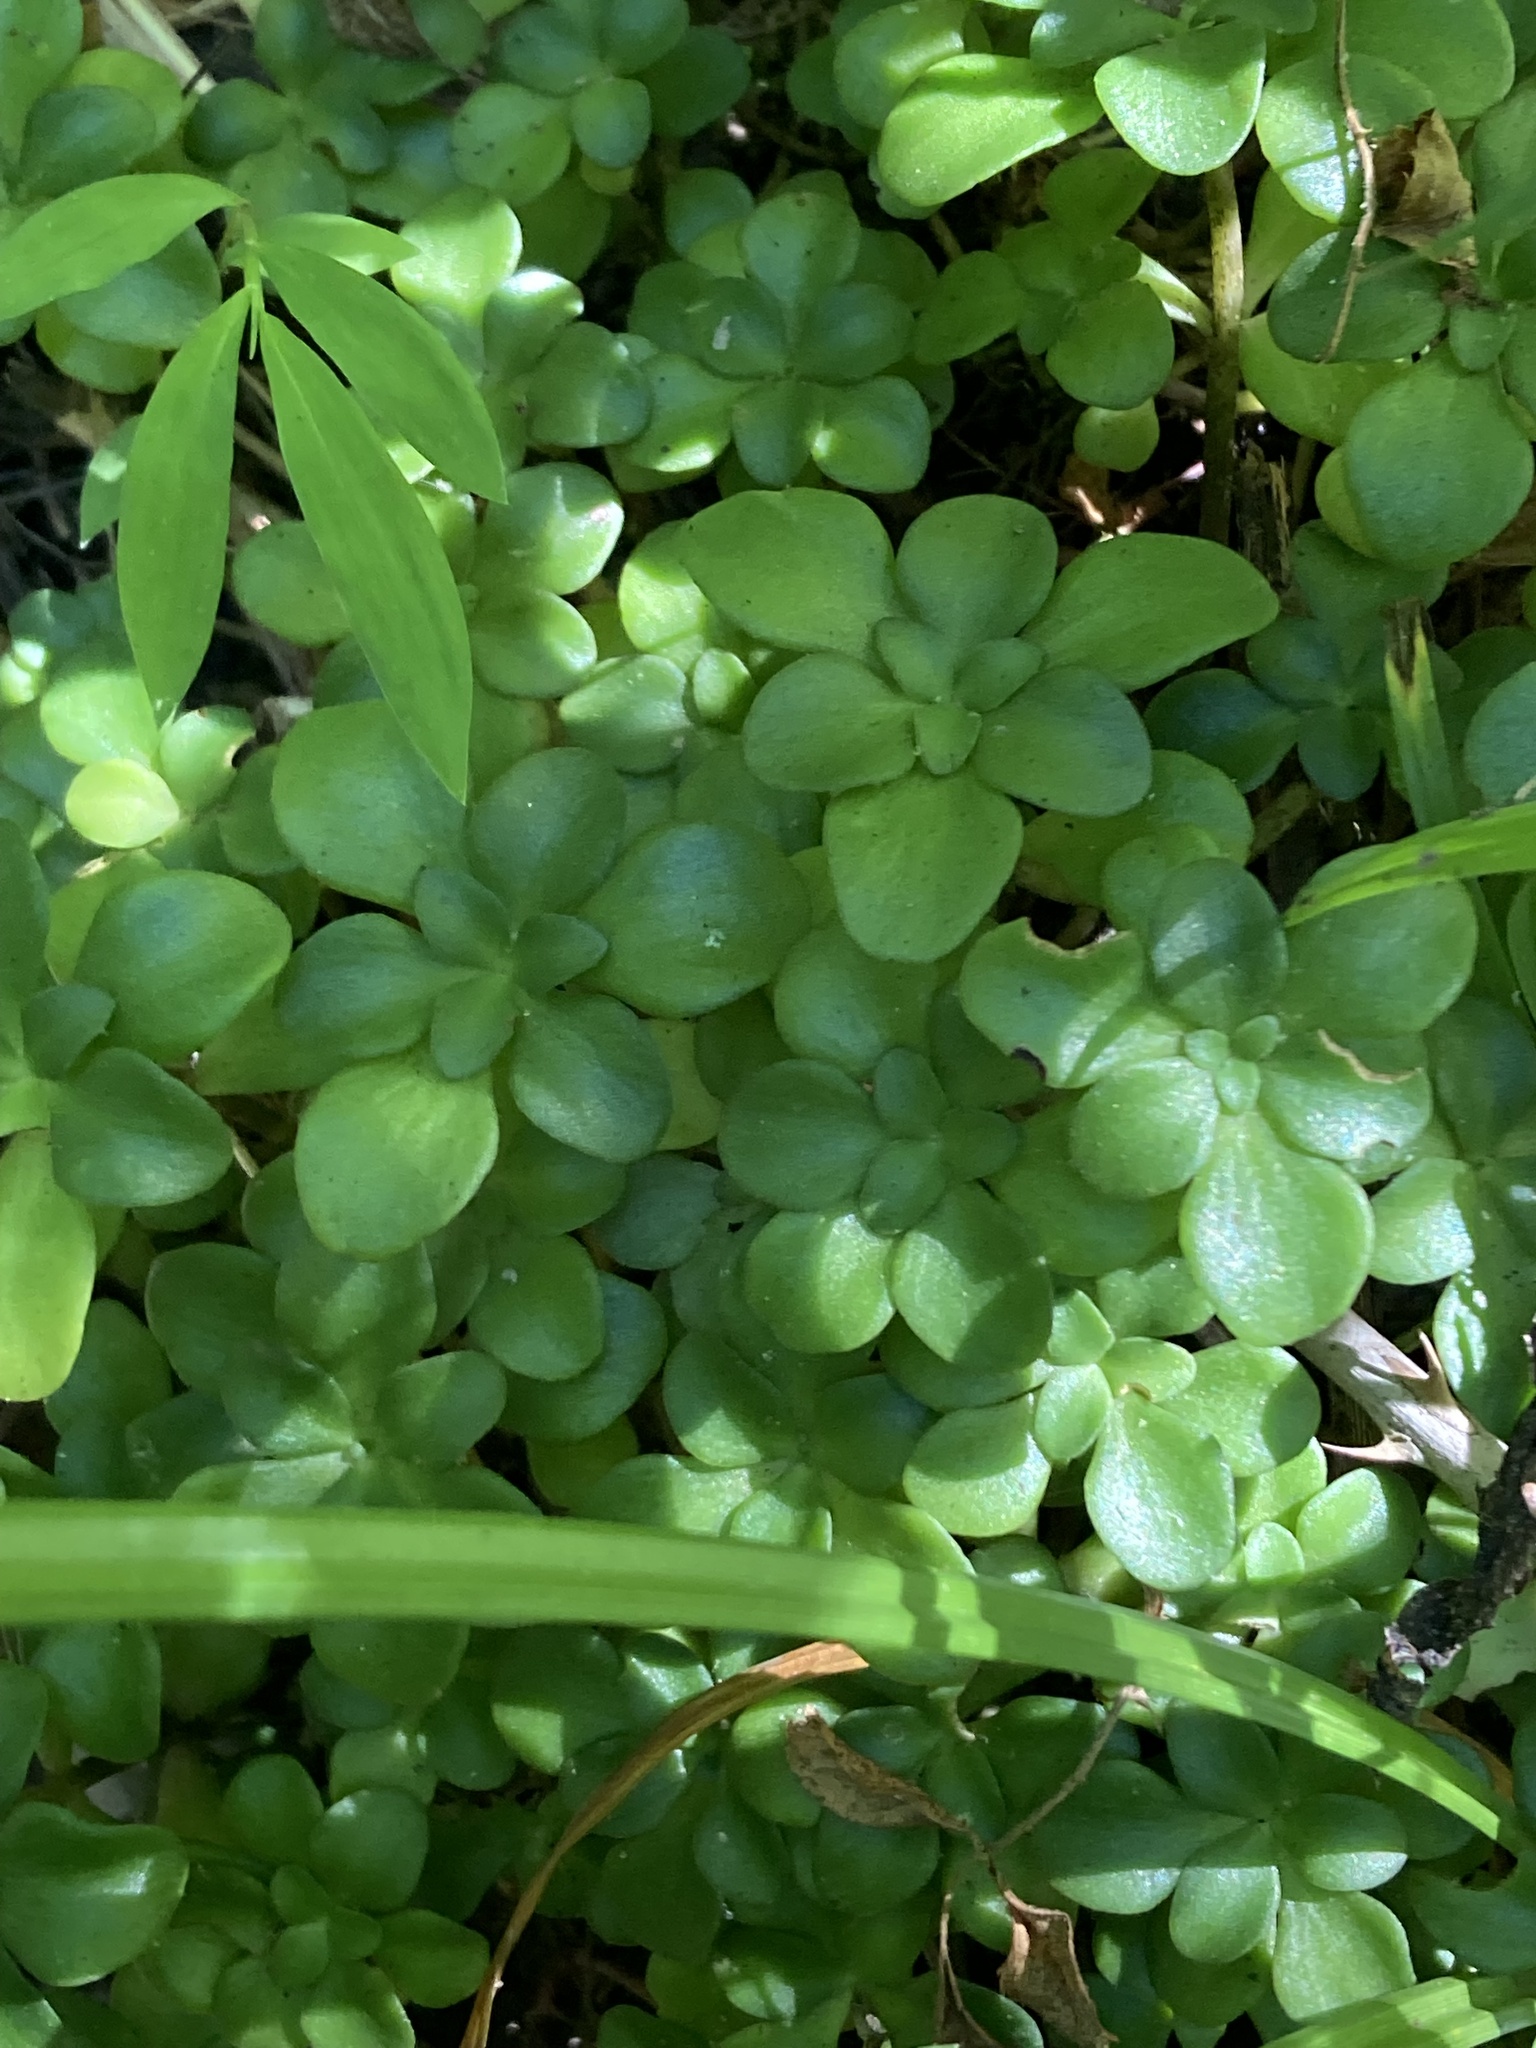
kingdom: Plantae
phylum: Tracheophyta
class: Magnoliopsida
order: Saxifragales
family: Crassulaceae
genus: Sedum
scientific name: Sedum ternatum
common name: Wild stonecrop
